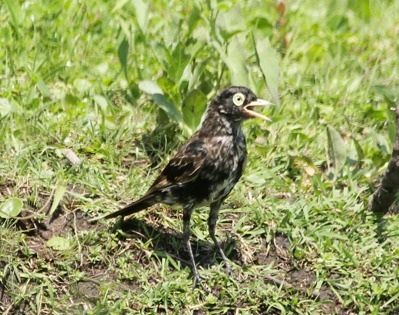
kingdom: Animalia
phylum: Chordata
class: Aves
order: Passeriformes
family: Tyrannidae
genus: Hymenops
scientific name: Hymenops perspicillatus
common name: Spectacled tyrant
